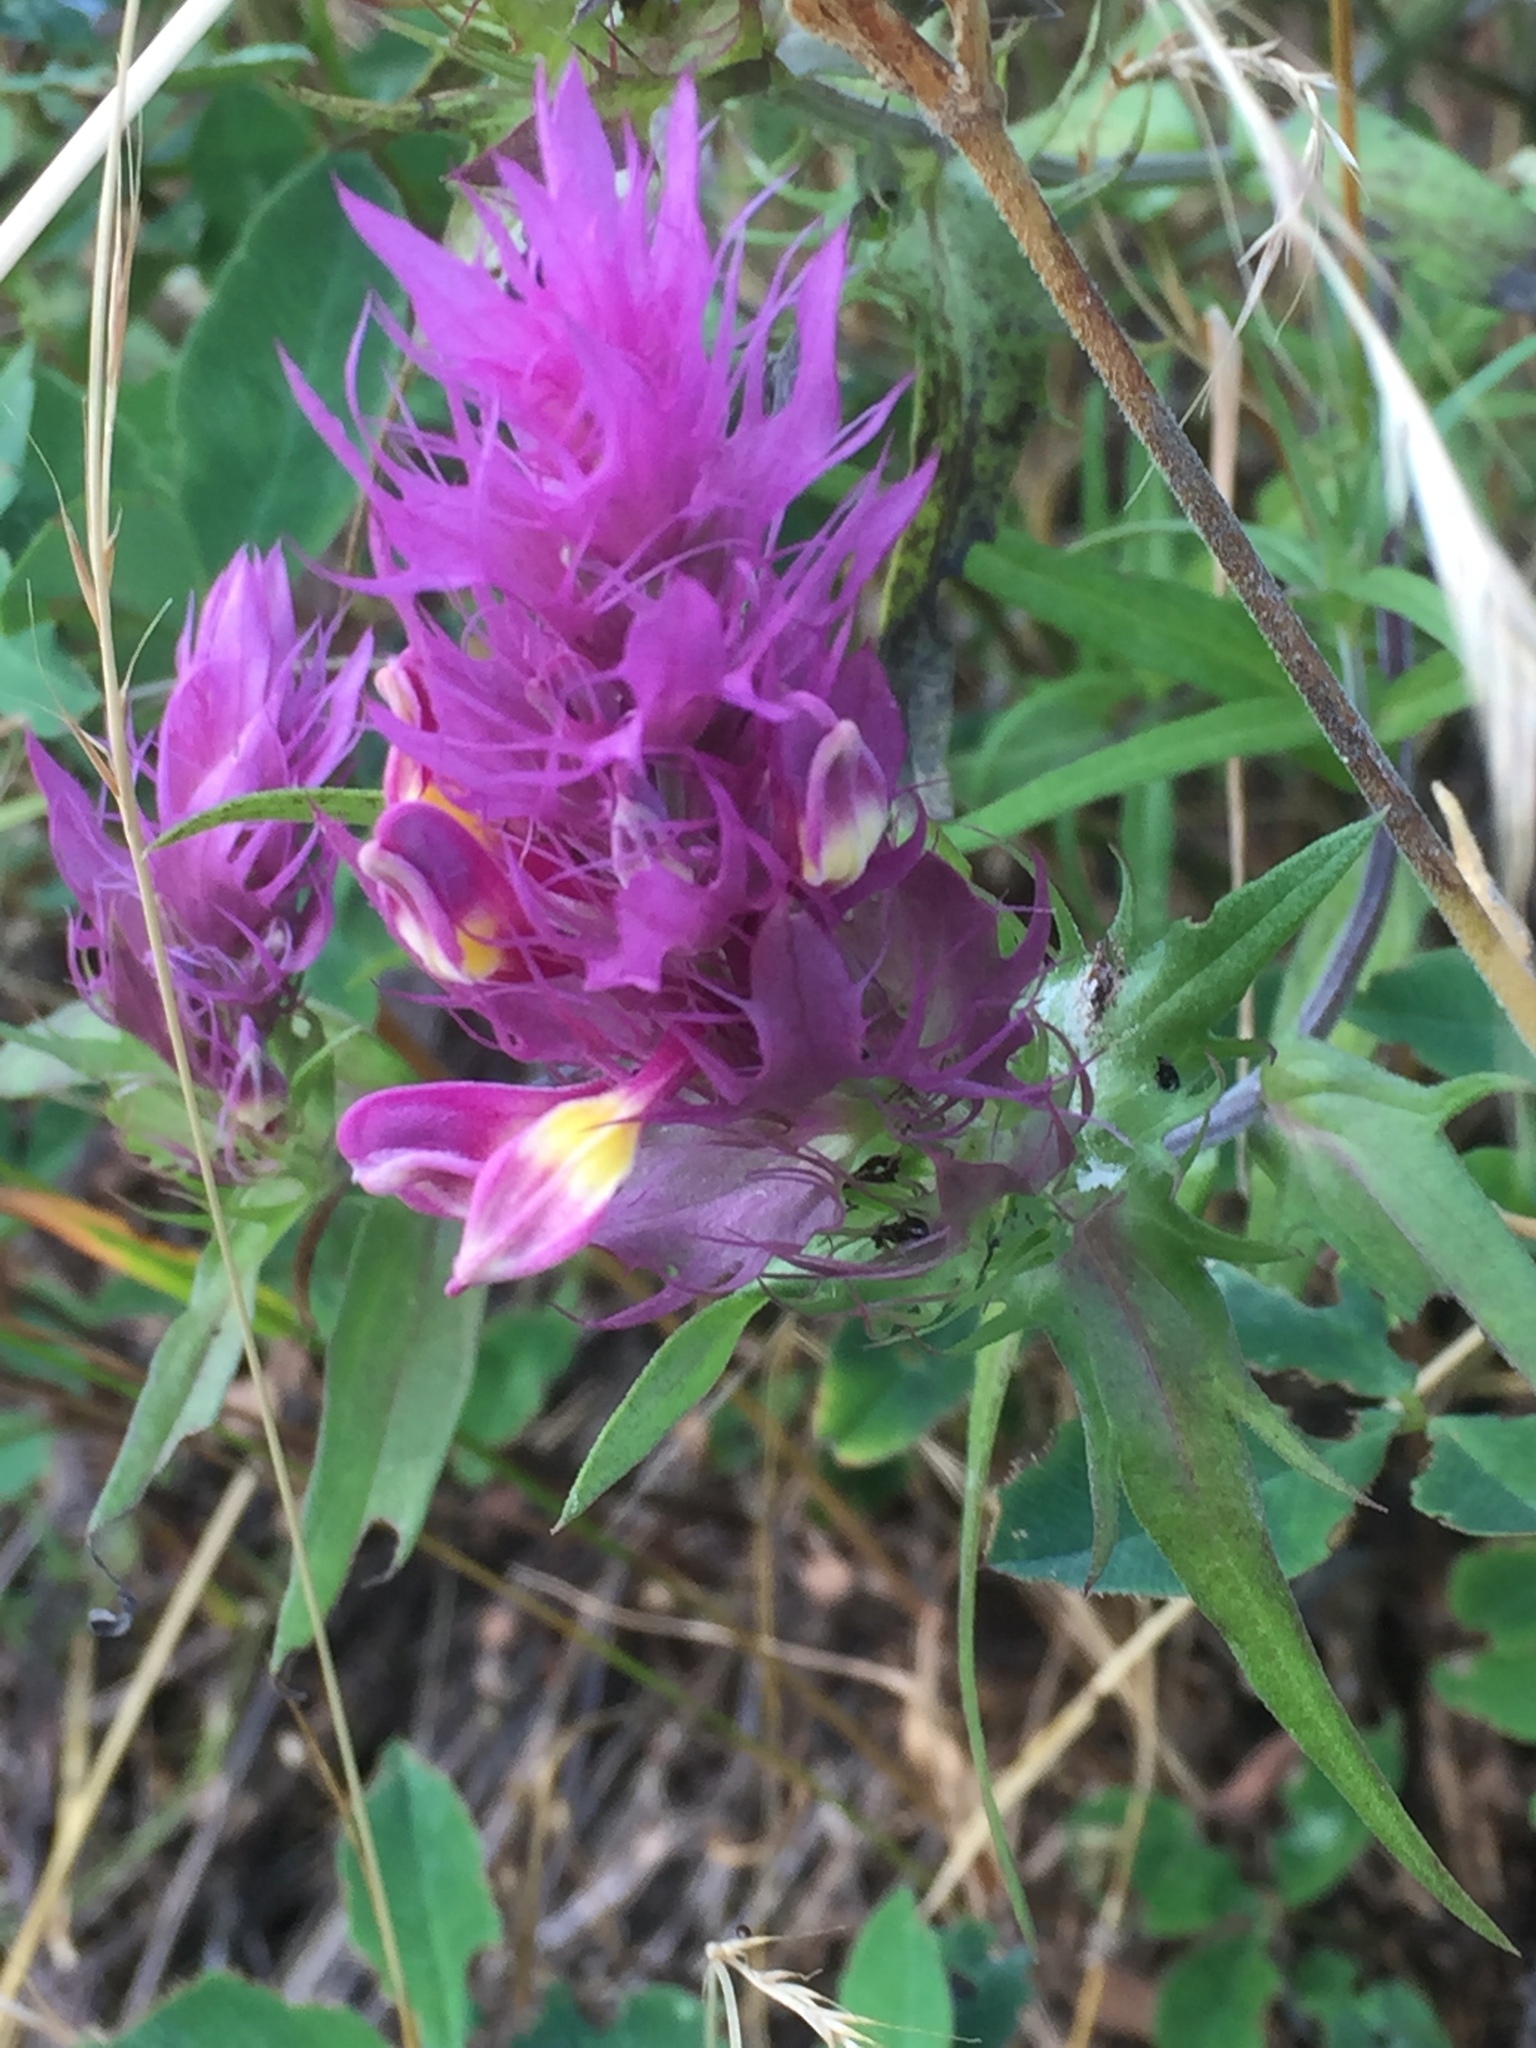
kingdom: Plantae
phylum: Tracheophyta
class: Magnoliopsida
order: Lamiales
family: Orobanchaceae
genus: Melampyrum
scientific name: Melampyrum arvense
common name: Field cow-wheat
